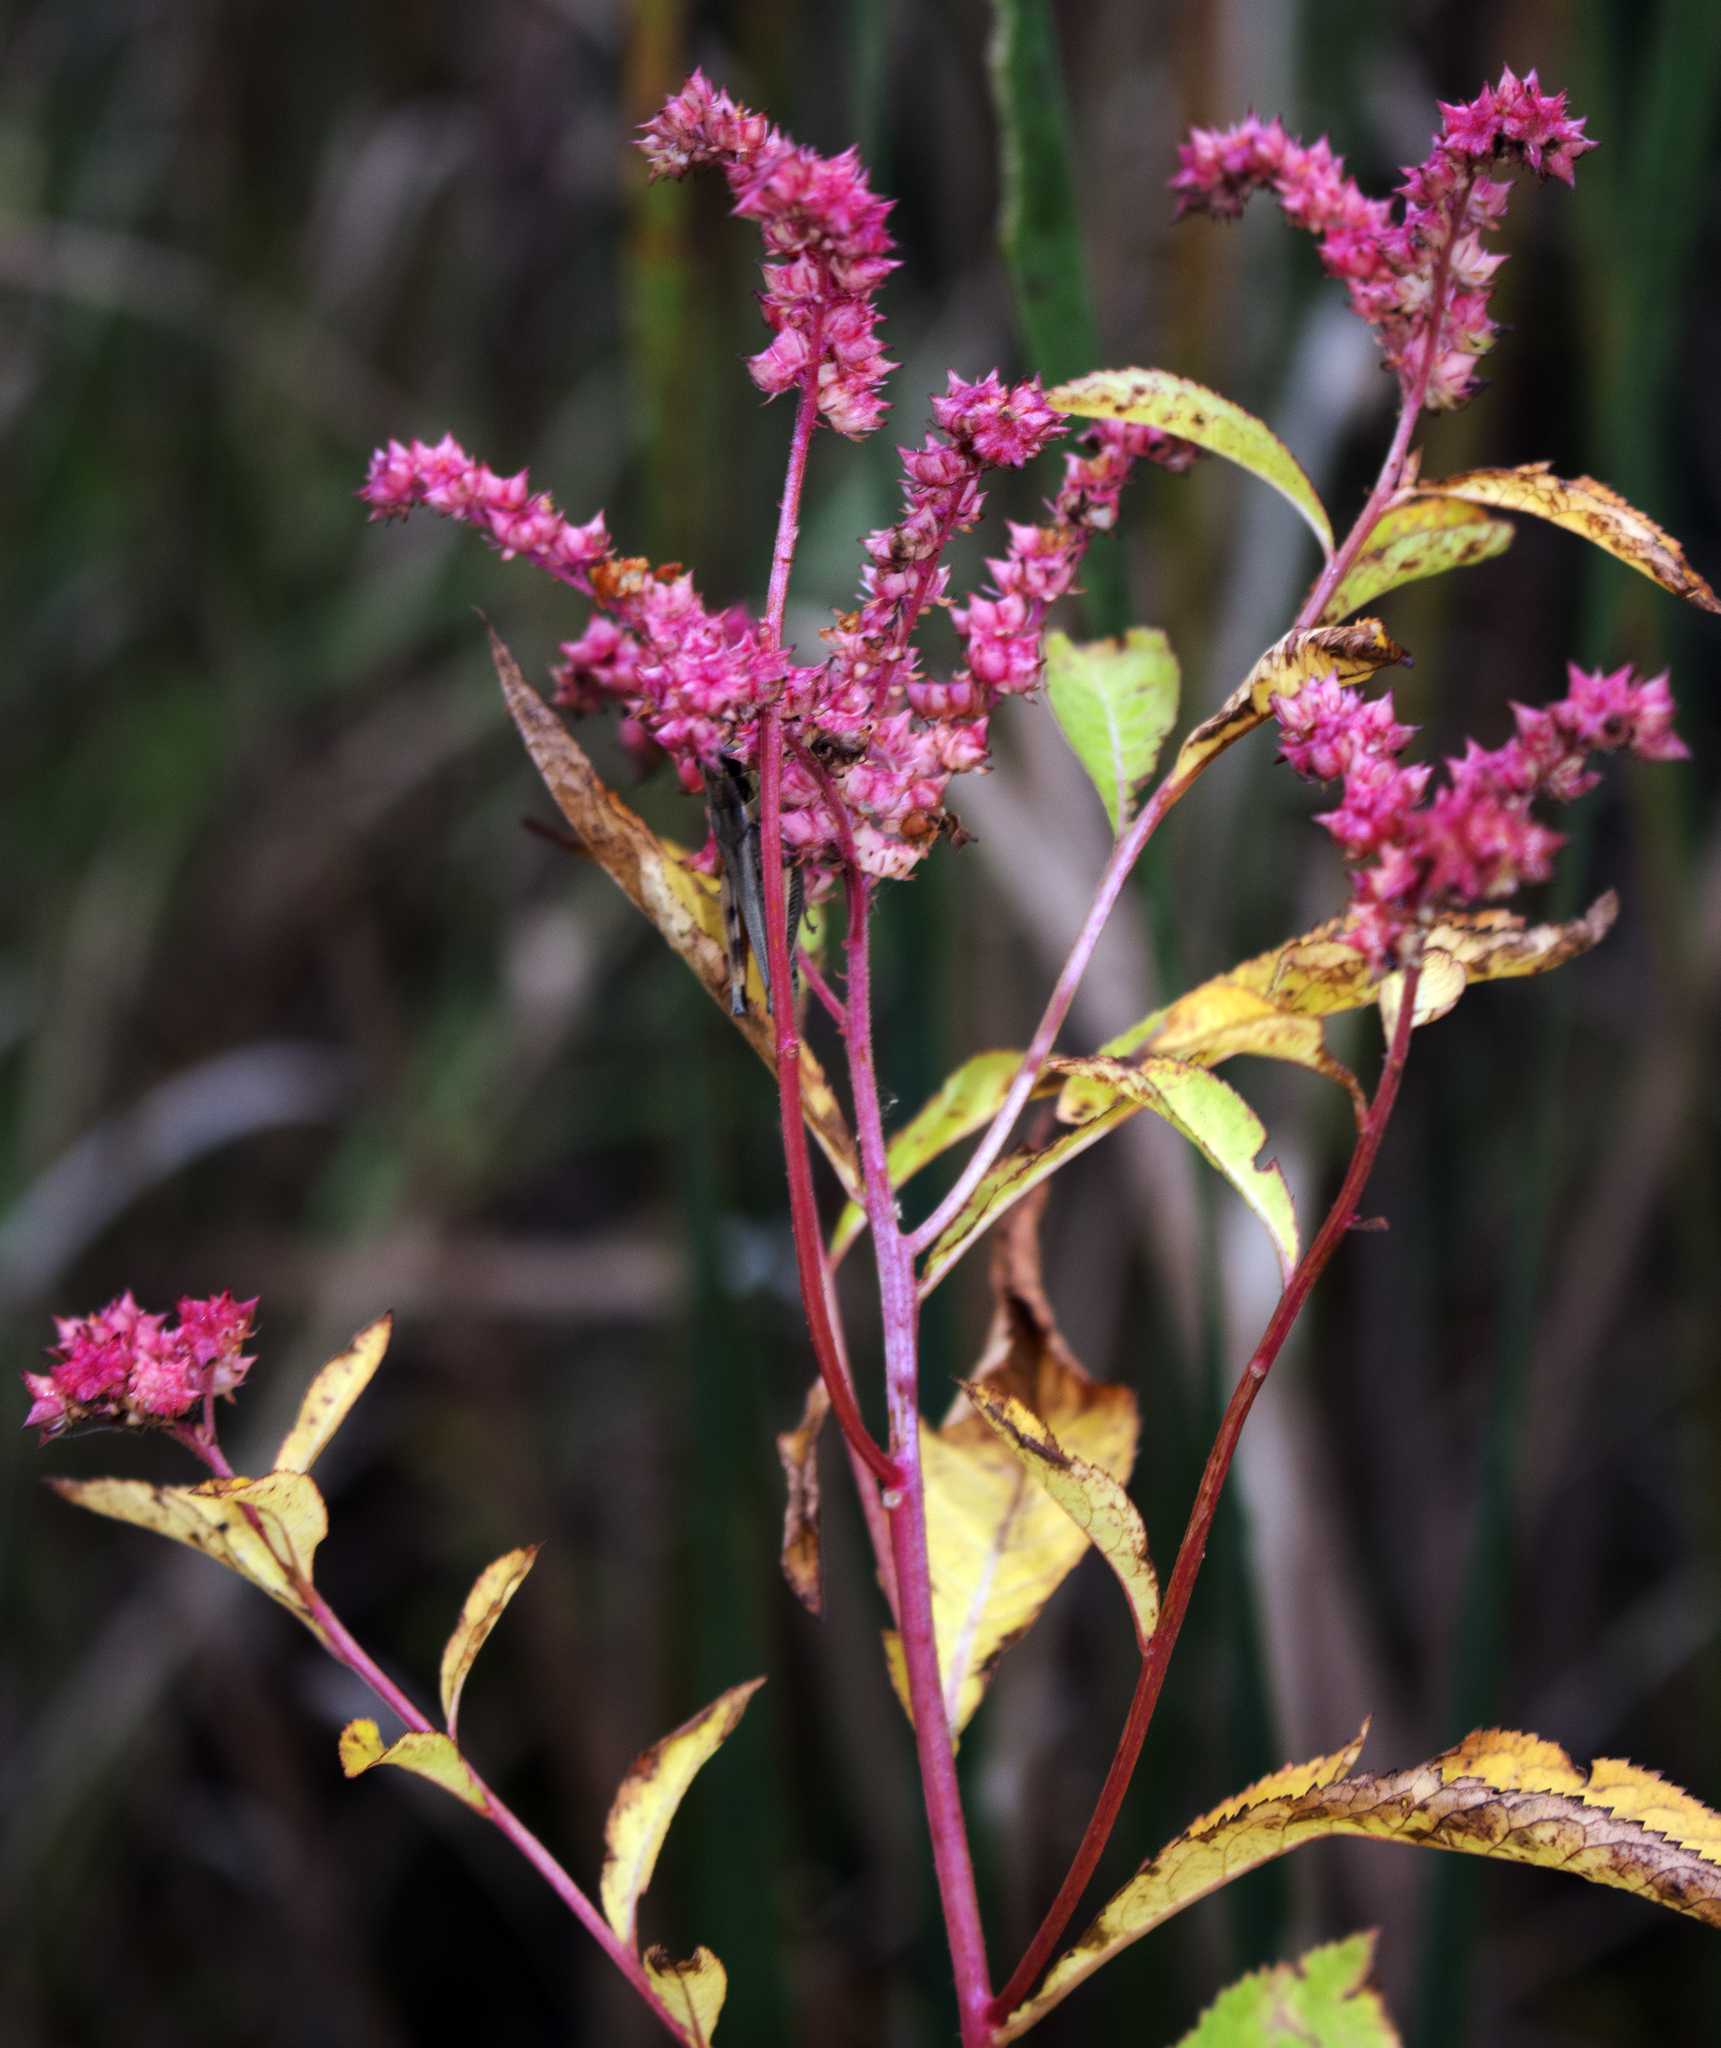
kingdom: Plantae
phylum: Tracheophyta
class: Magnoliopsida
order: Saxifragales
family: Penthoraceae
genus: Penthorum
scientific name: Penthorum sedoides
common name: Ditch stonecrop
